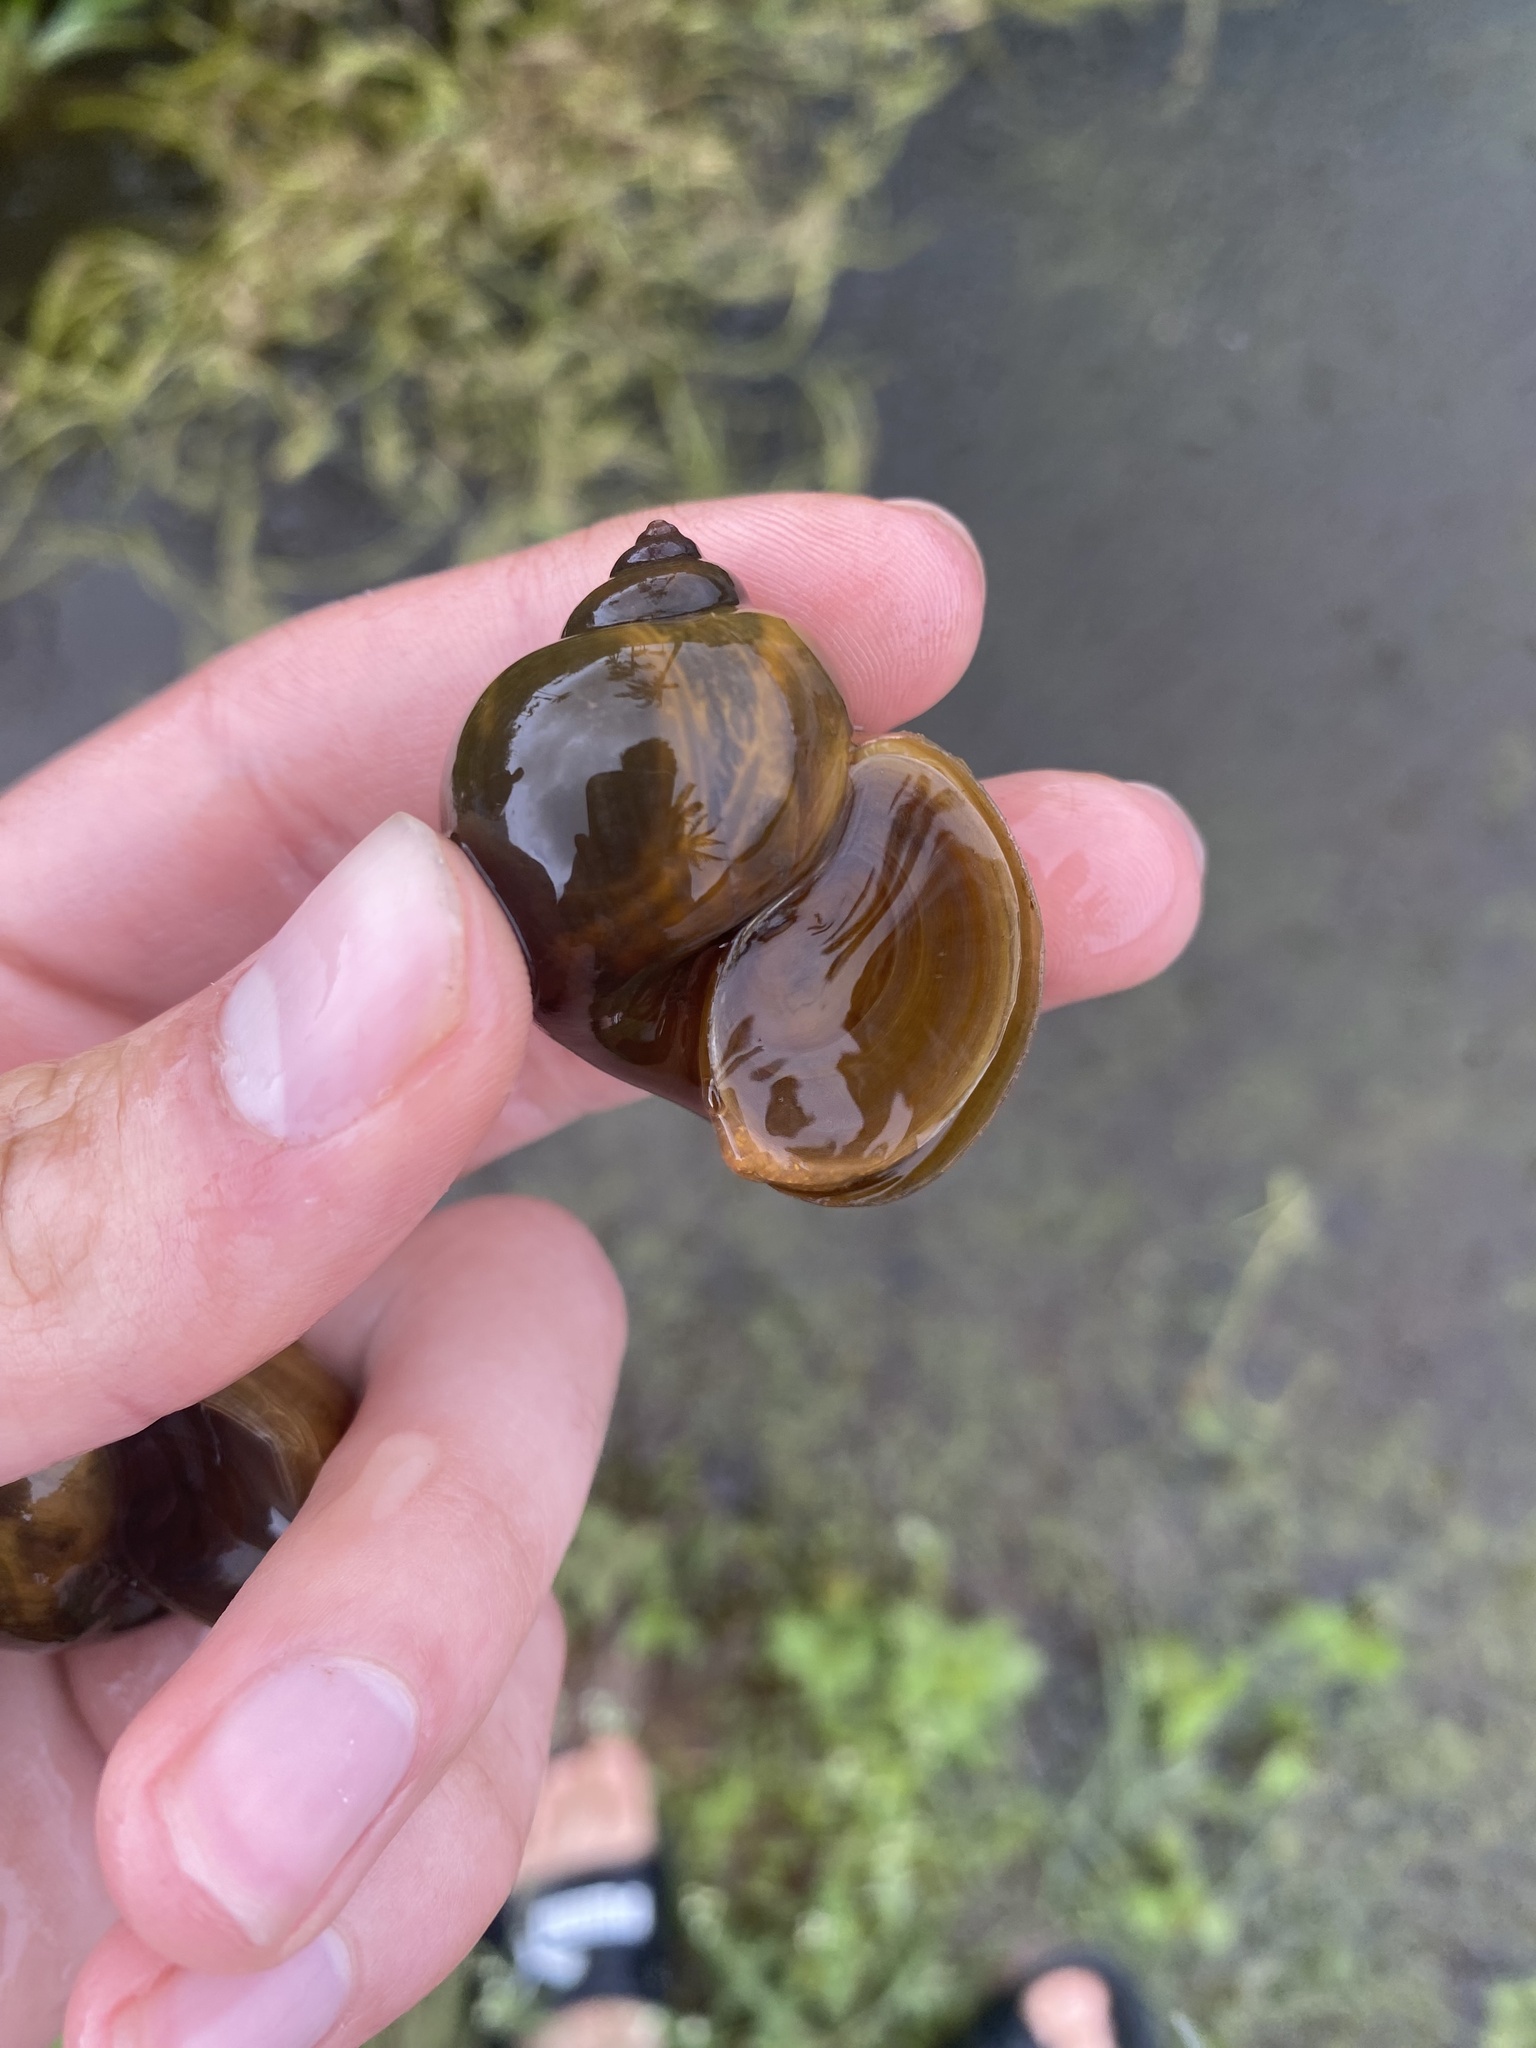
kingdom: Animalia
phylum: Mollusca
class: Gastropoda
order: Architaenioglossa
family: Ampullariidae
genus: Pomacea
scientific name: Pomacea canaliculata
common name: Channeled applesnail
